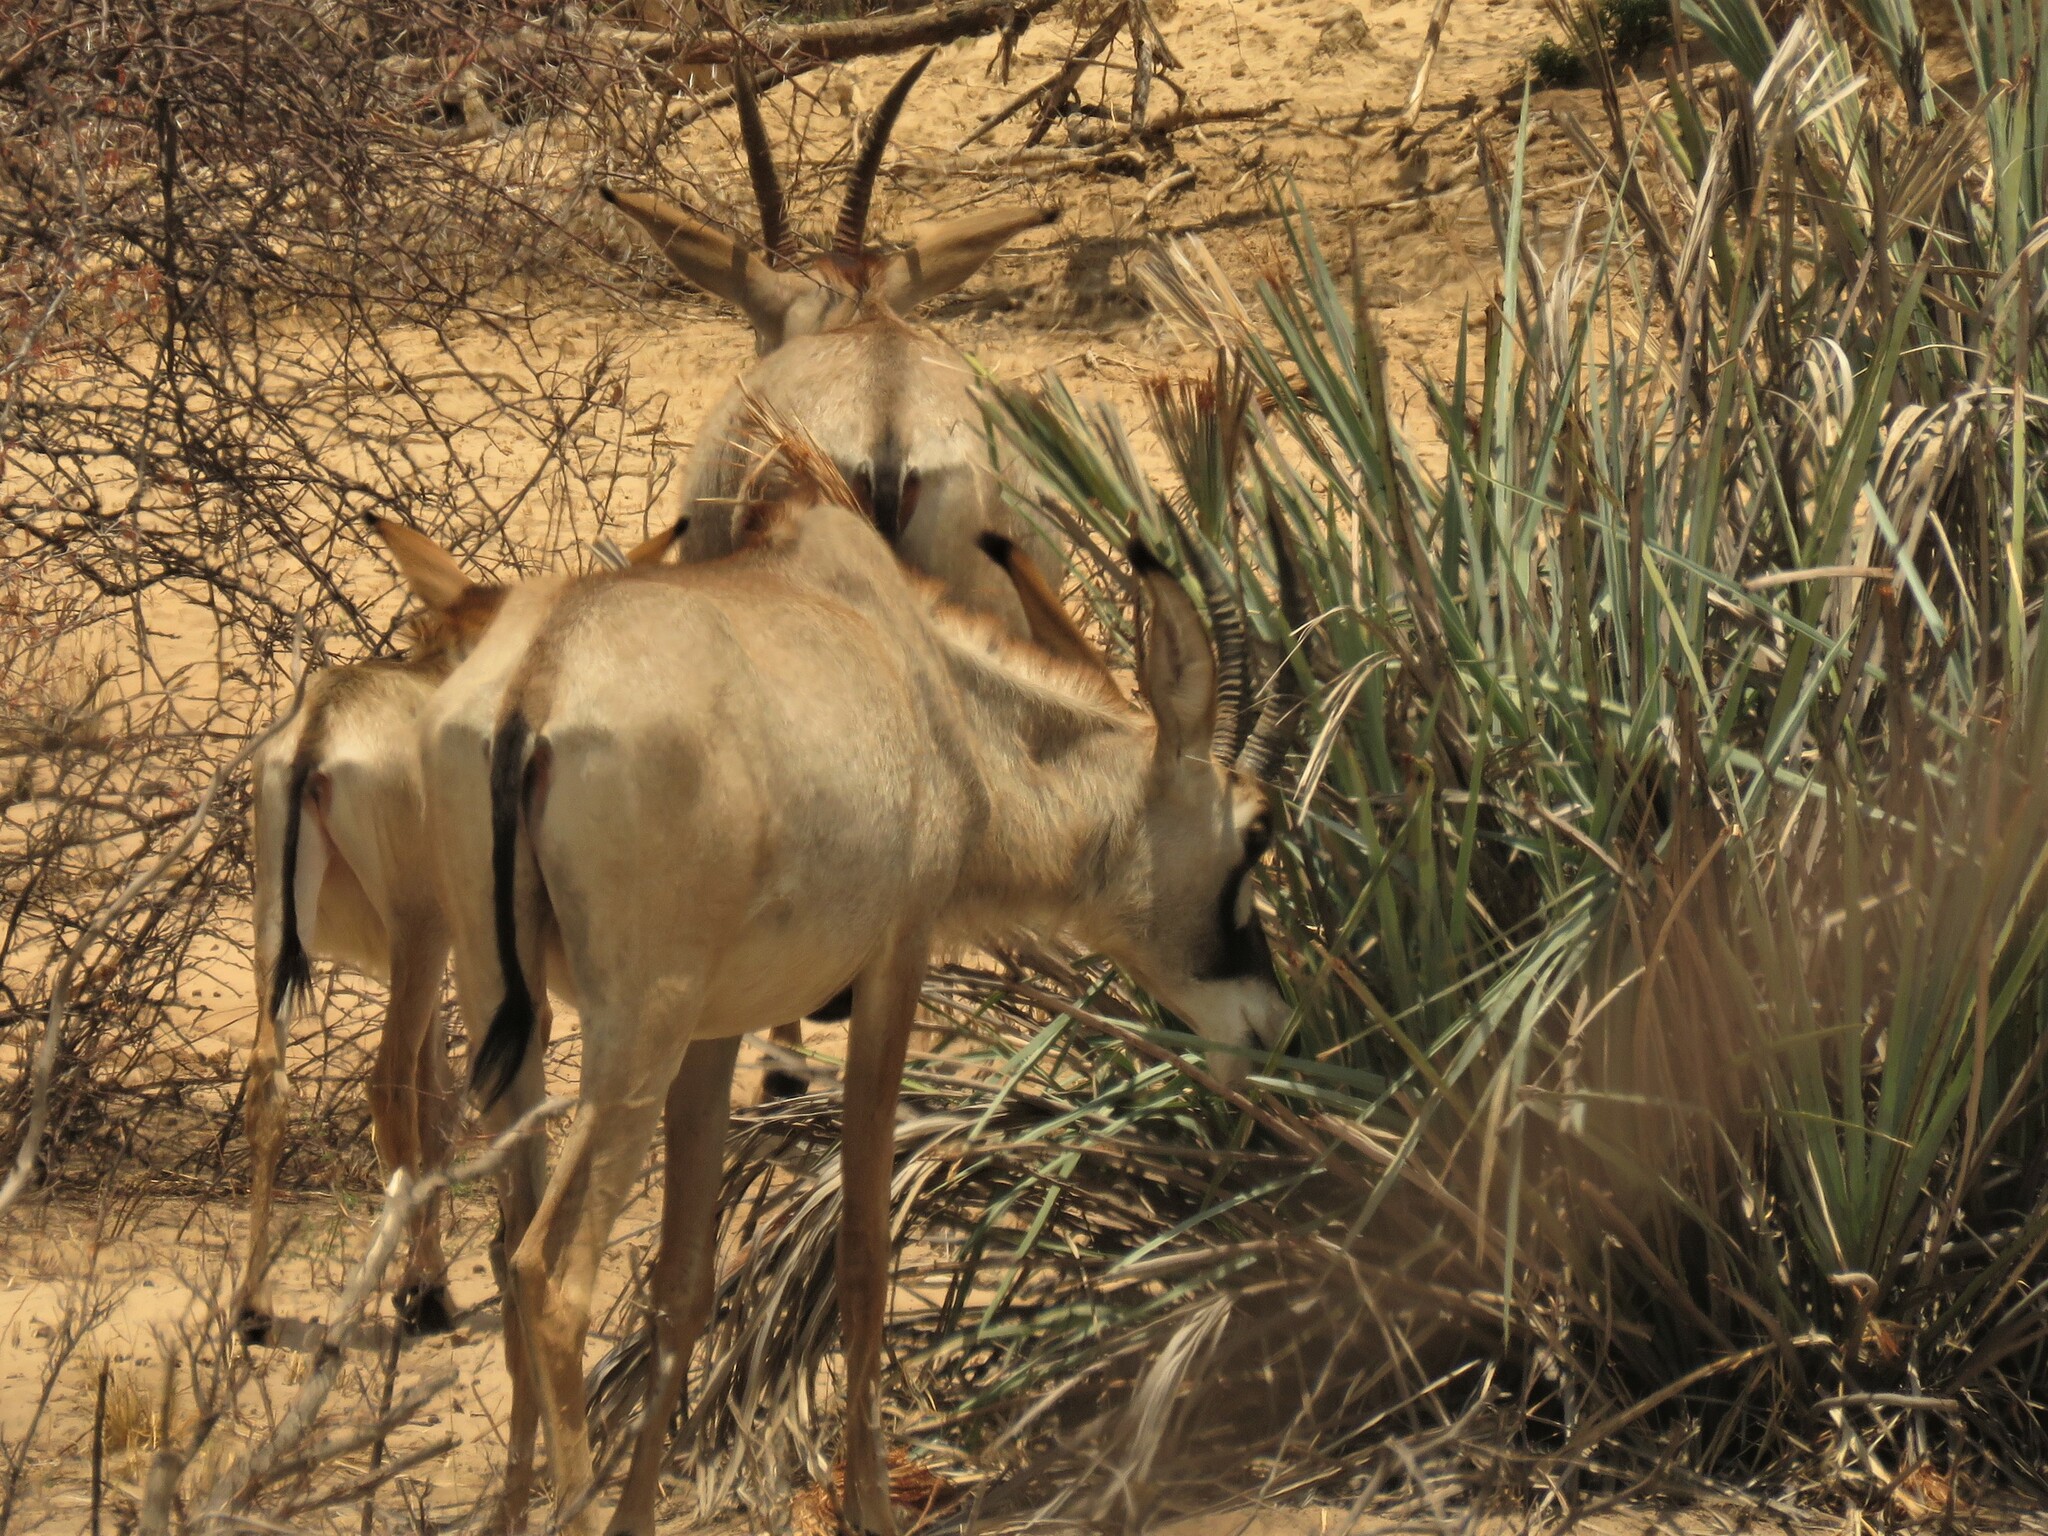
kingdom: Animalia
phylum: Chordata
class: Mammalia
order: Artiodactyla
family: Bovidae
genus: Hippotragus
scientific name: Hippotragus equinus
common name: Roan antelope
